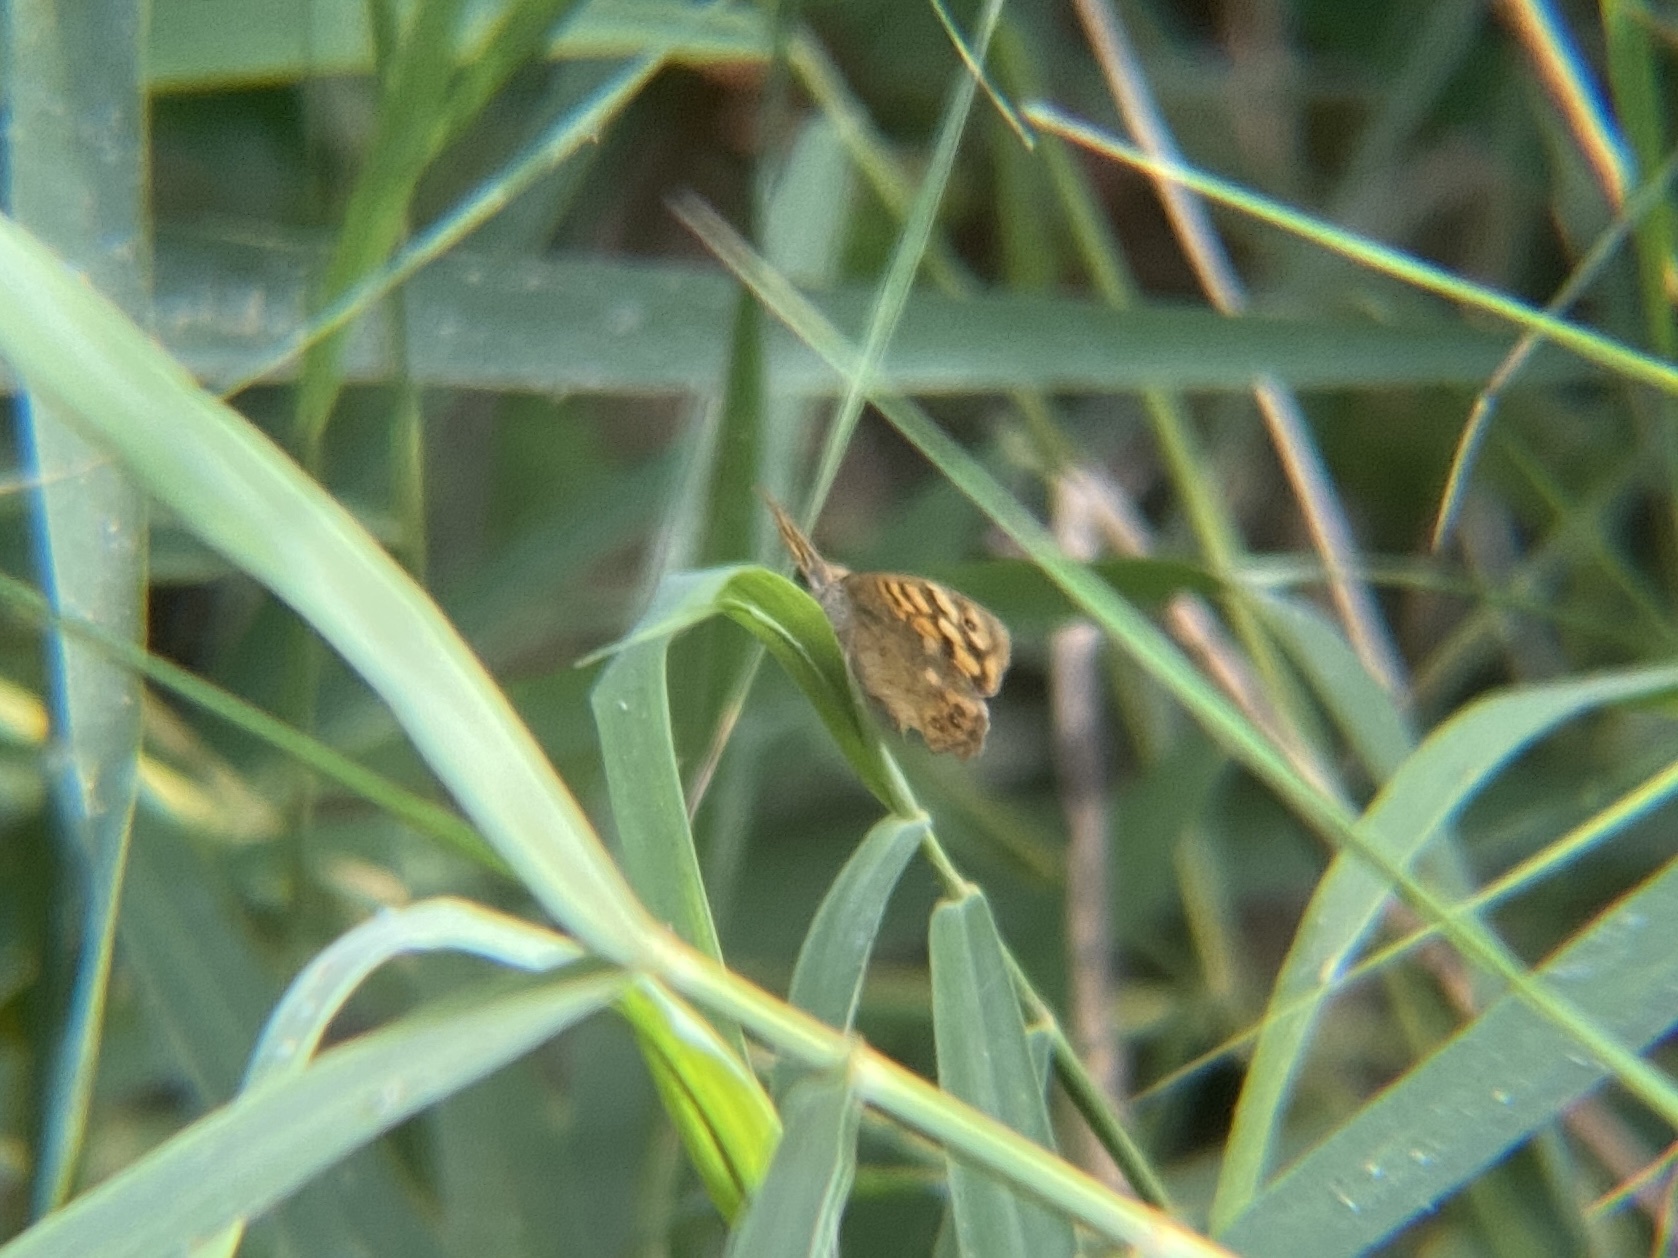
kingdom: Animalia
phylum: Arthropoda
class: Insecta
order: Lepidoptera
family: Nymphalidae
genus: Pararge
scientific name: Pararge aegeria
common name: Speckled wood
